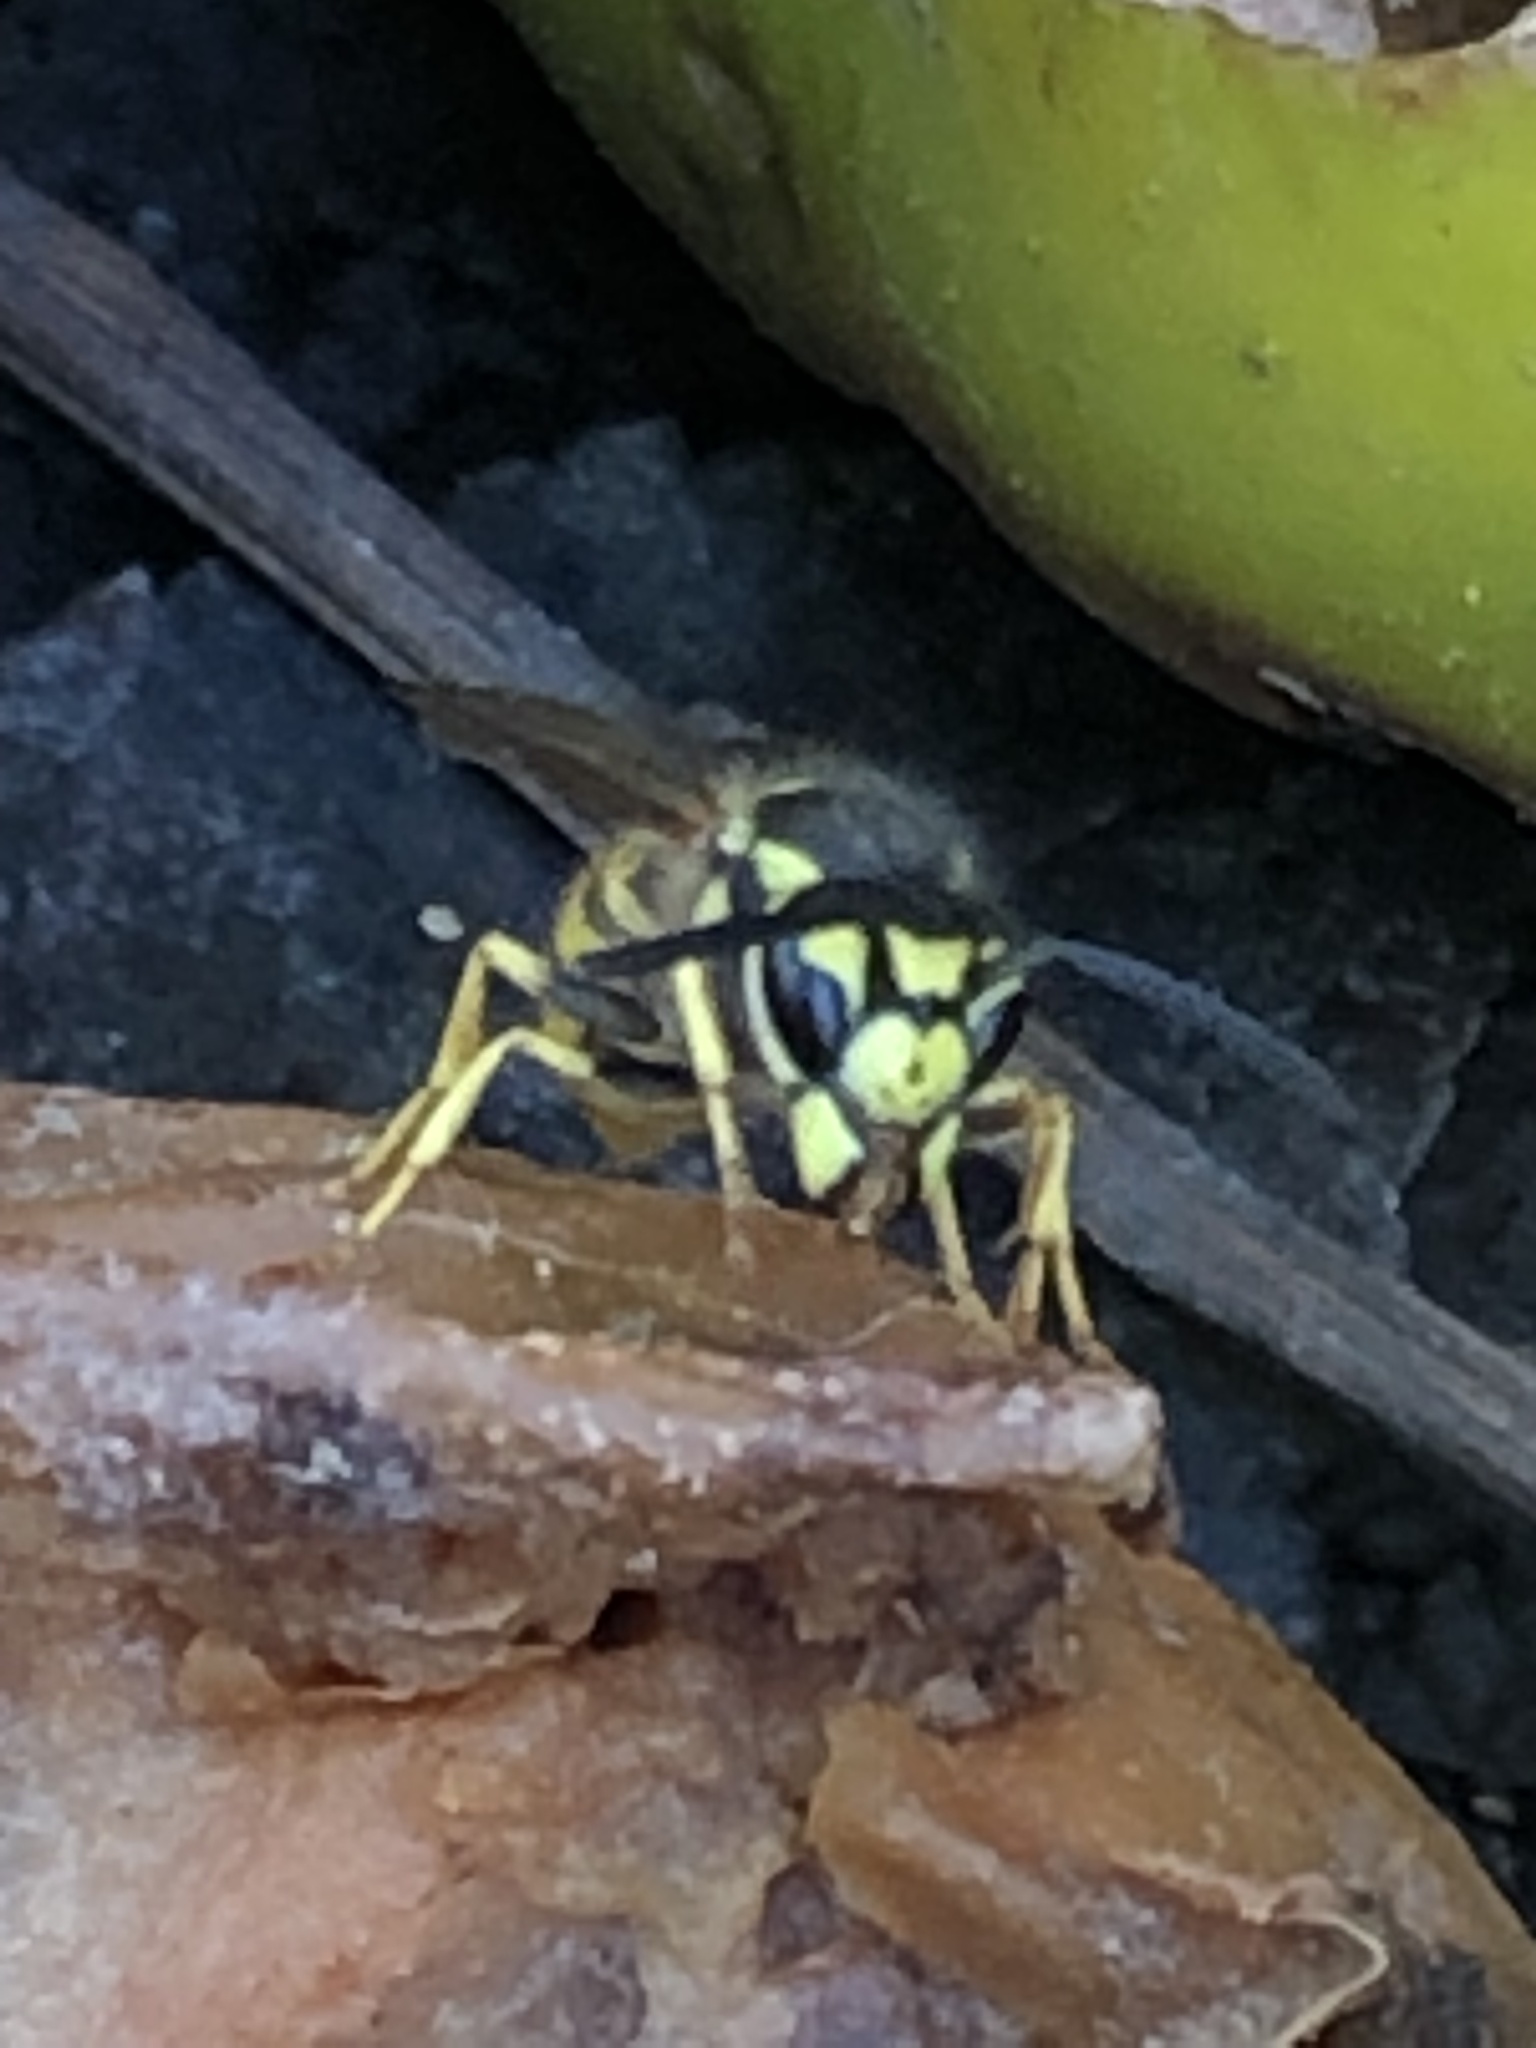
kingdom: Animalia
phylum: Arthropoda
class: Insecta
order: Hymenoptera
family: Vespidae
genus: Vespula
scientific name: Vespula germanica
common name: German wasp
